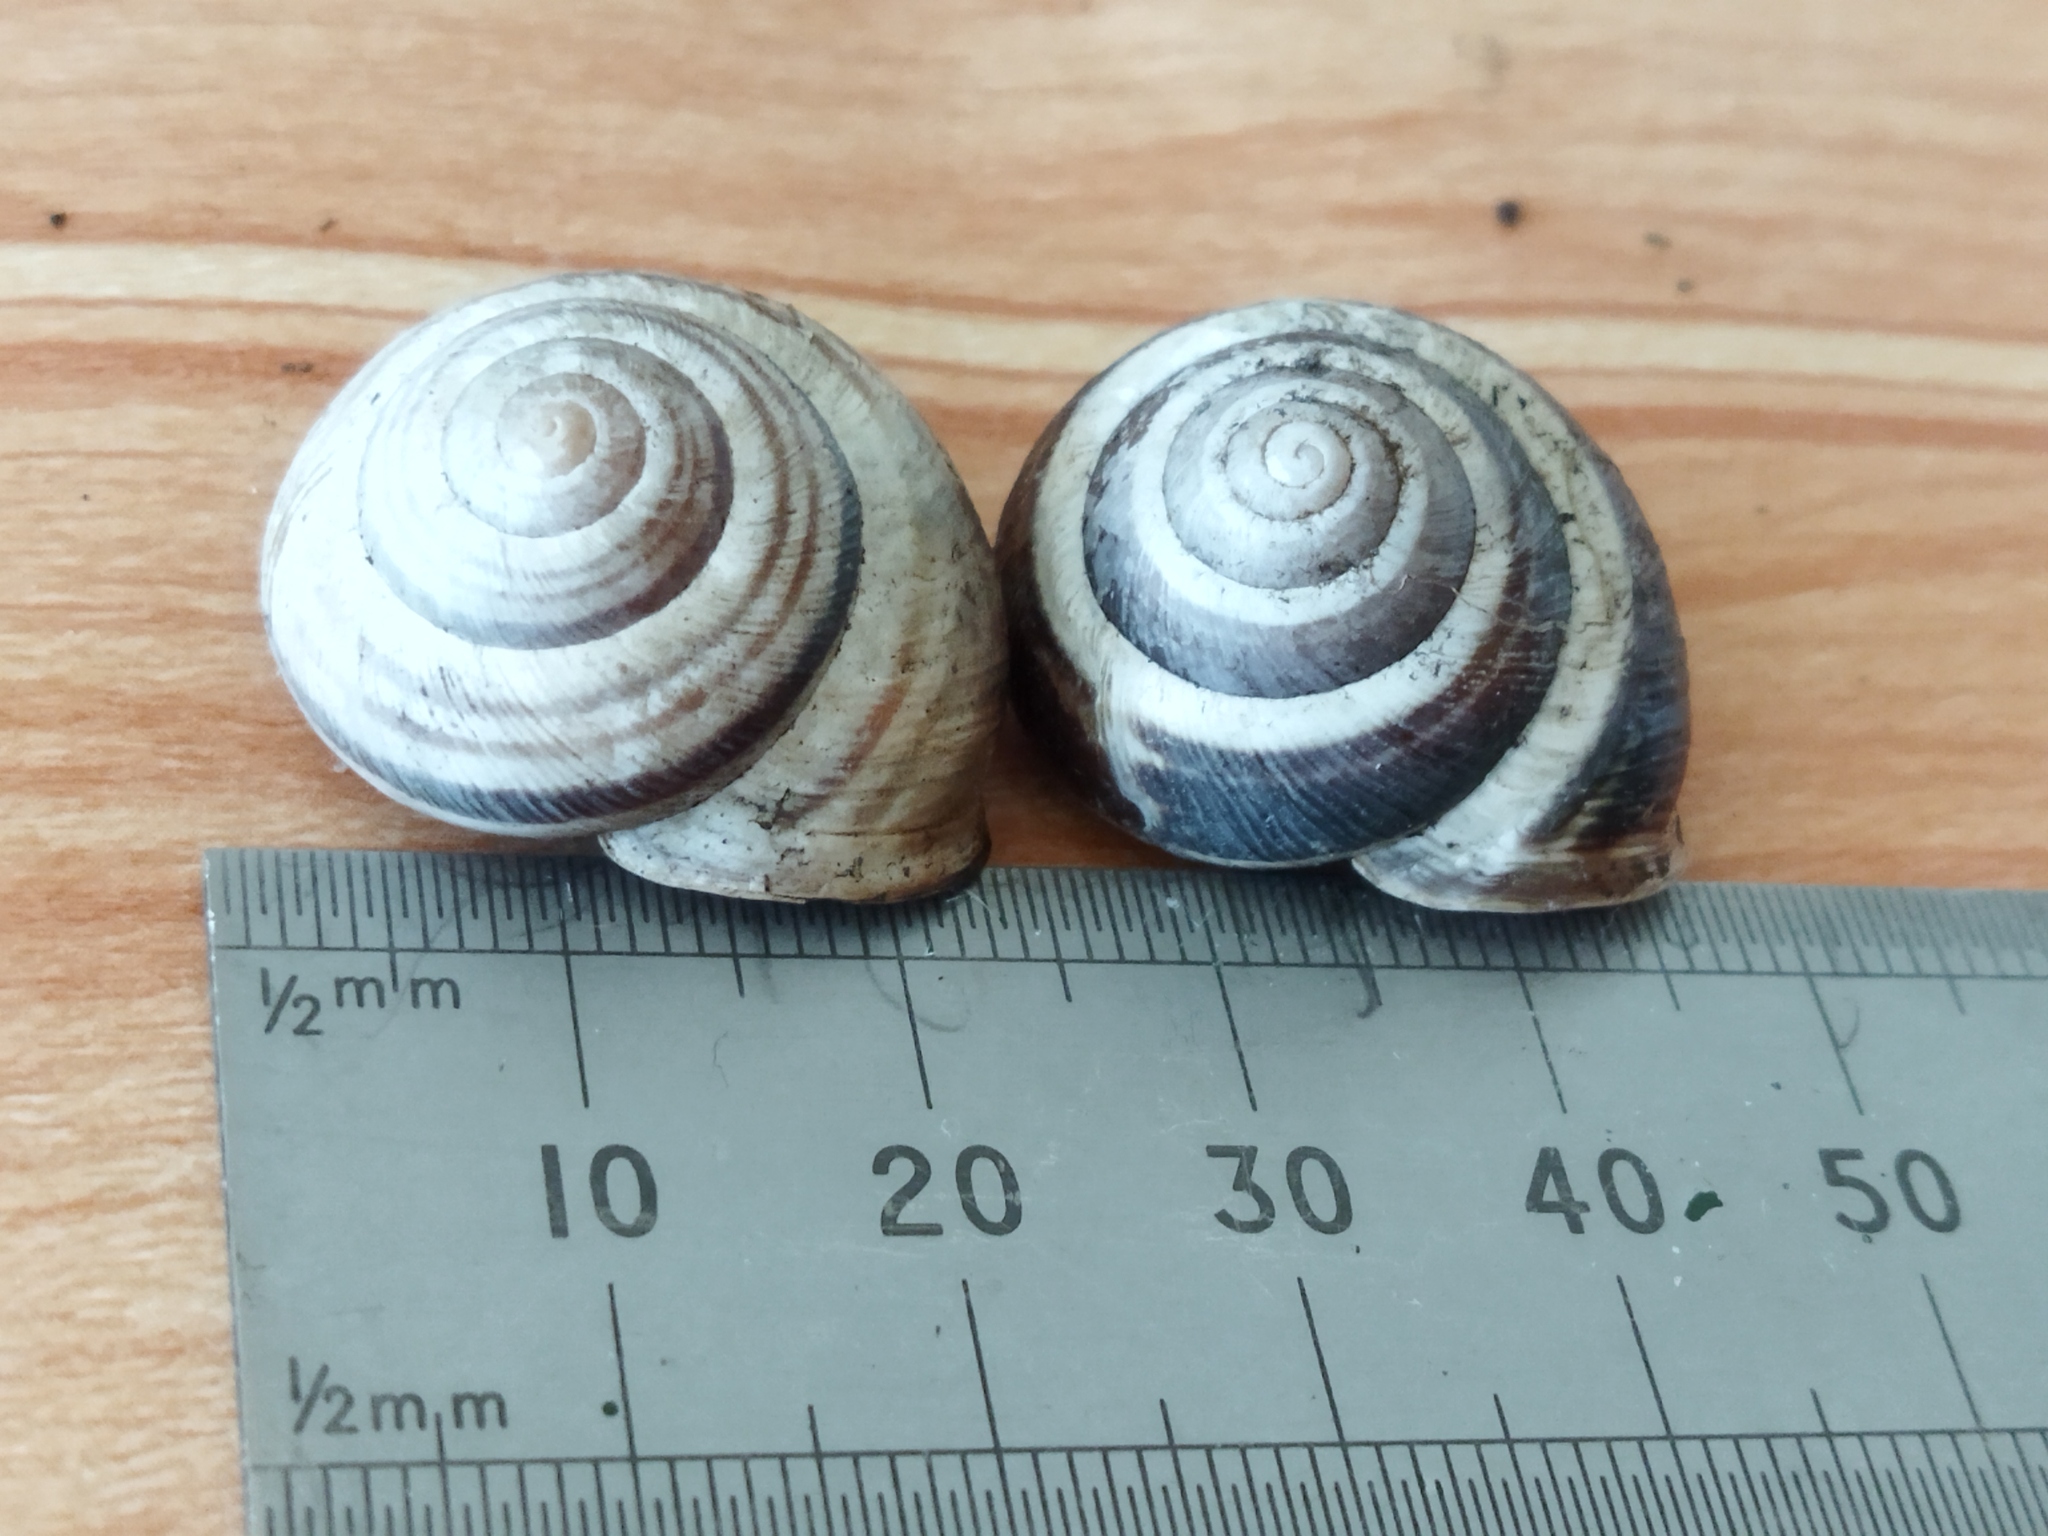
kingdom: Animalia
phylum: Mollusca
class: Gastropoda
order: Stylommatophora
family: Helicidae
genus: Caucasotachea
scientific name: Caucasotachea vindobonensis
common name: European helicid land snail
